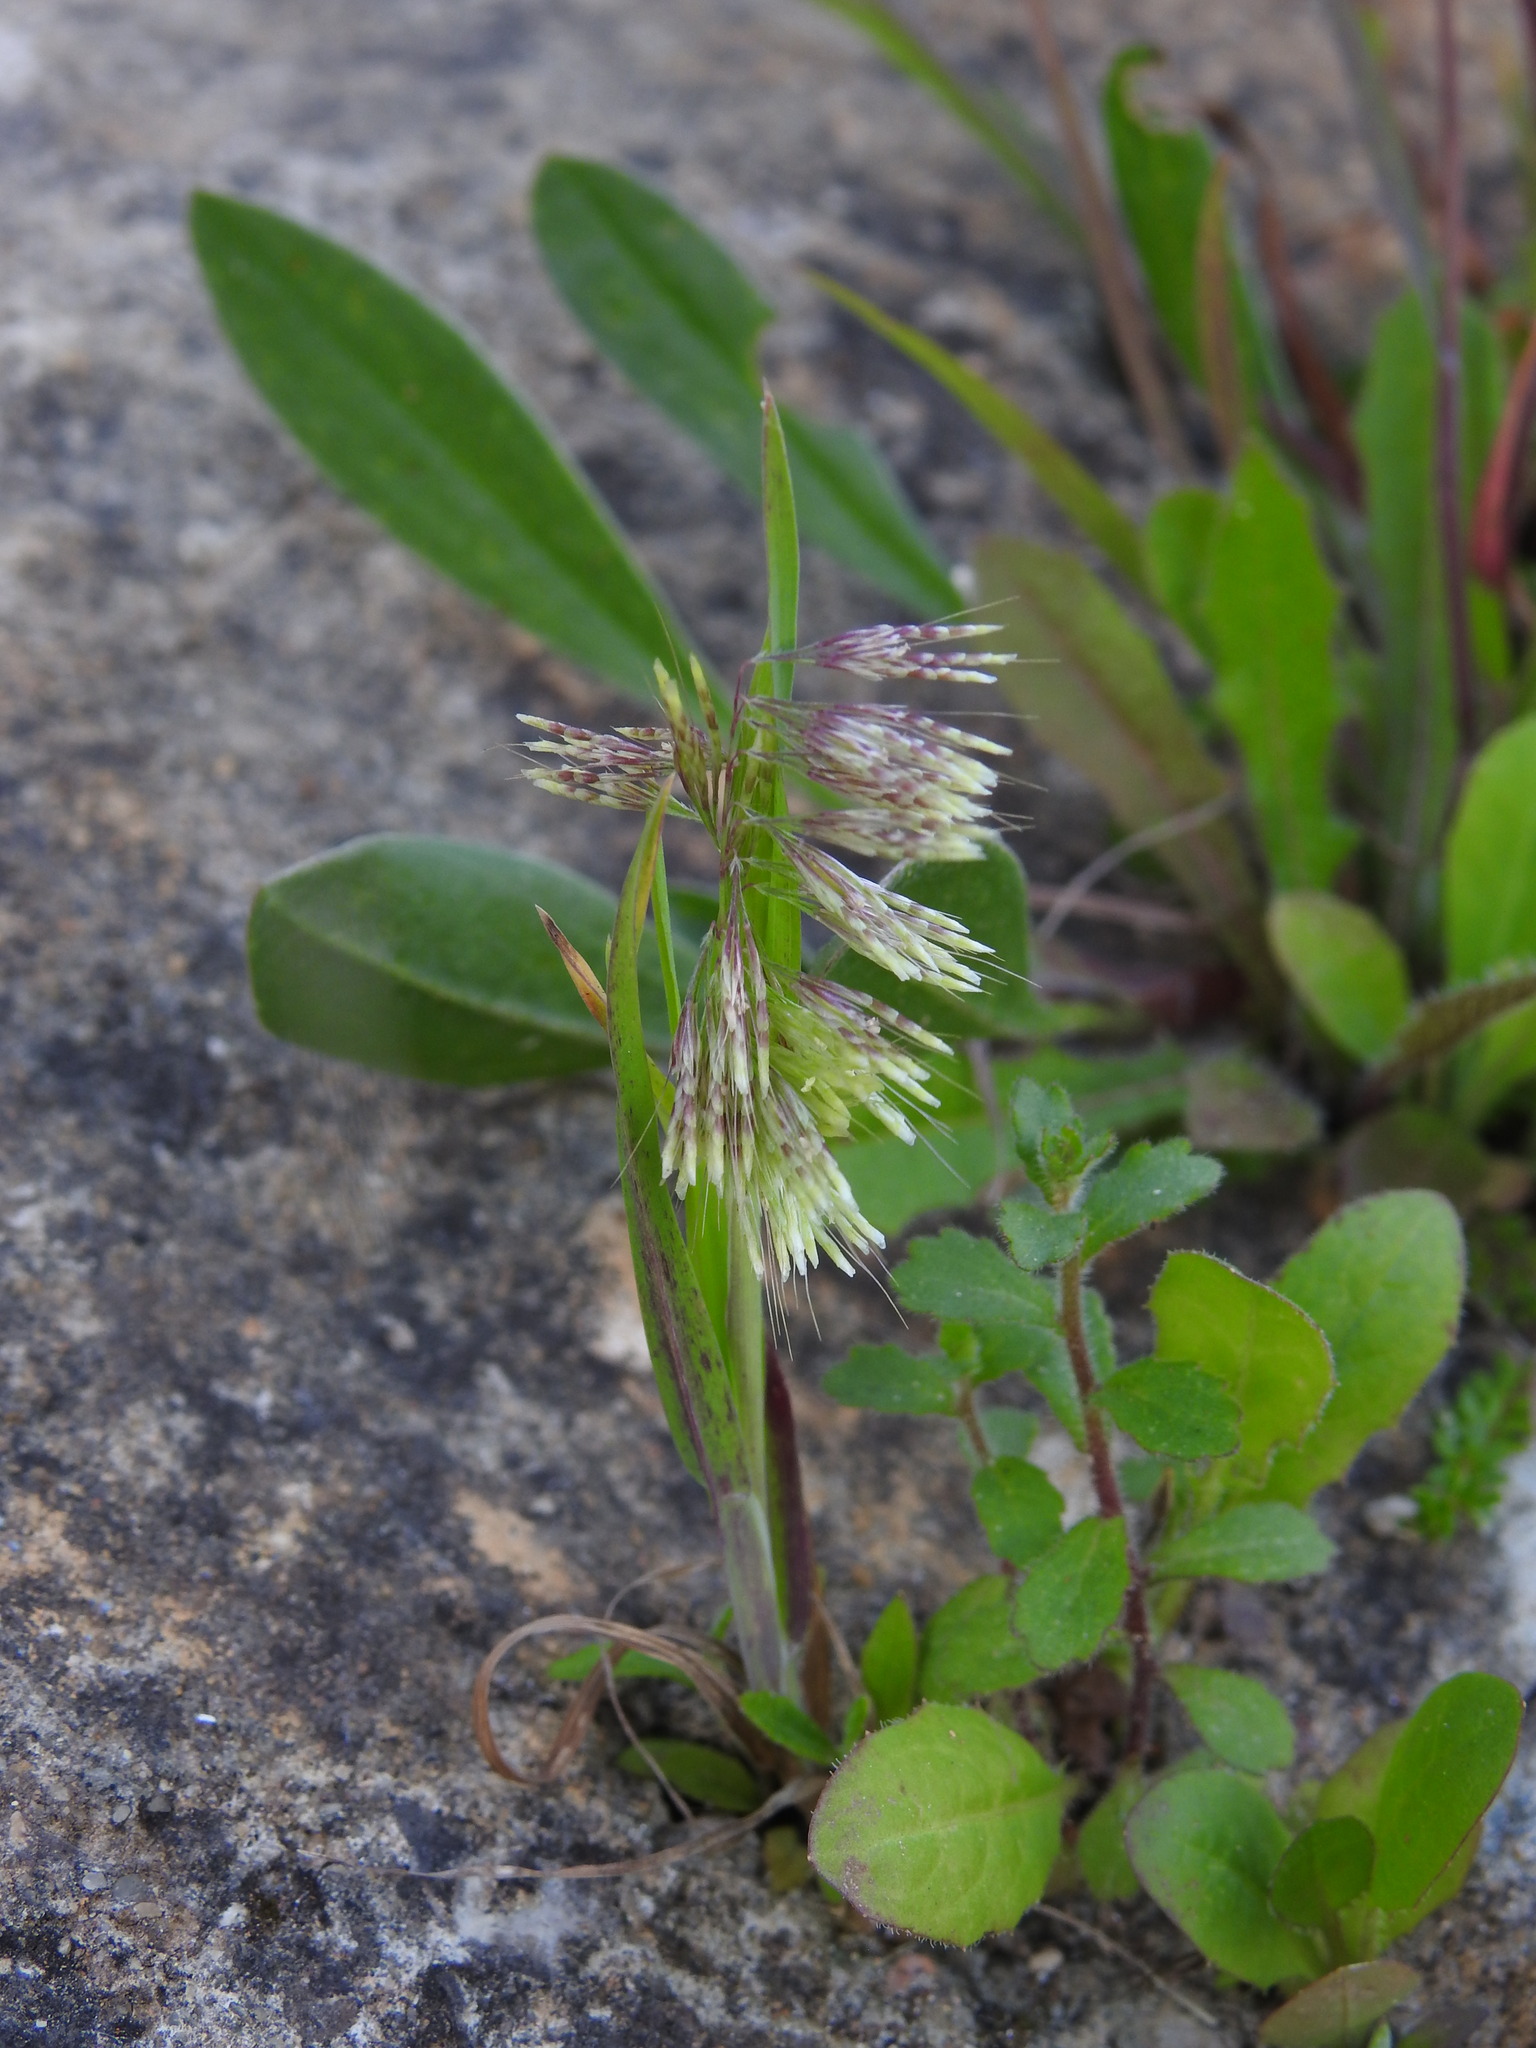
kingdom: Plantae
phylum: Tracheophyta
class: Liliopsida
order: Poales
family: Poaceae
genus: Lamarckia
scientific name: Lamarckia aurea
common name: Golden dog's-tail
